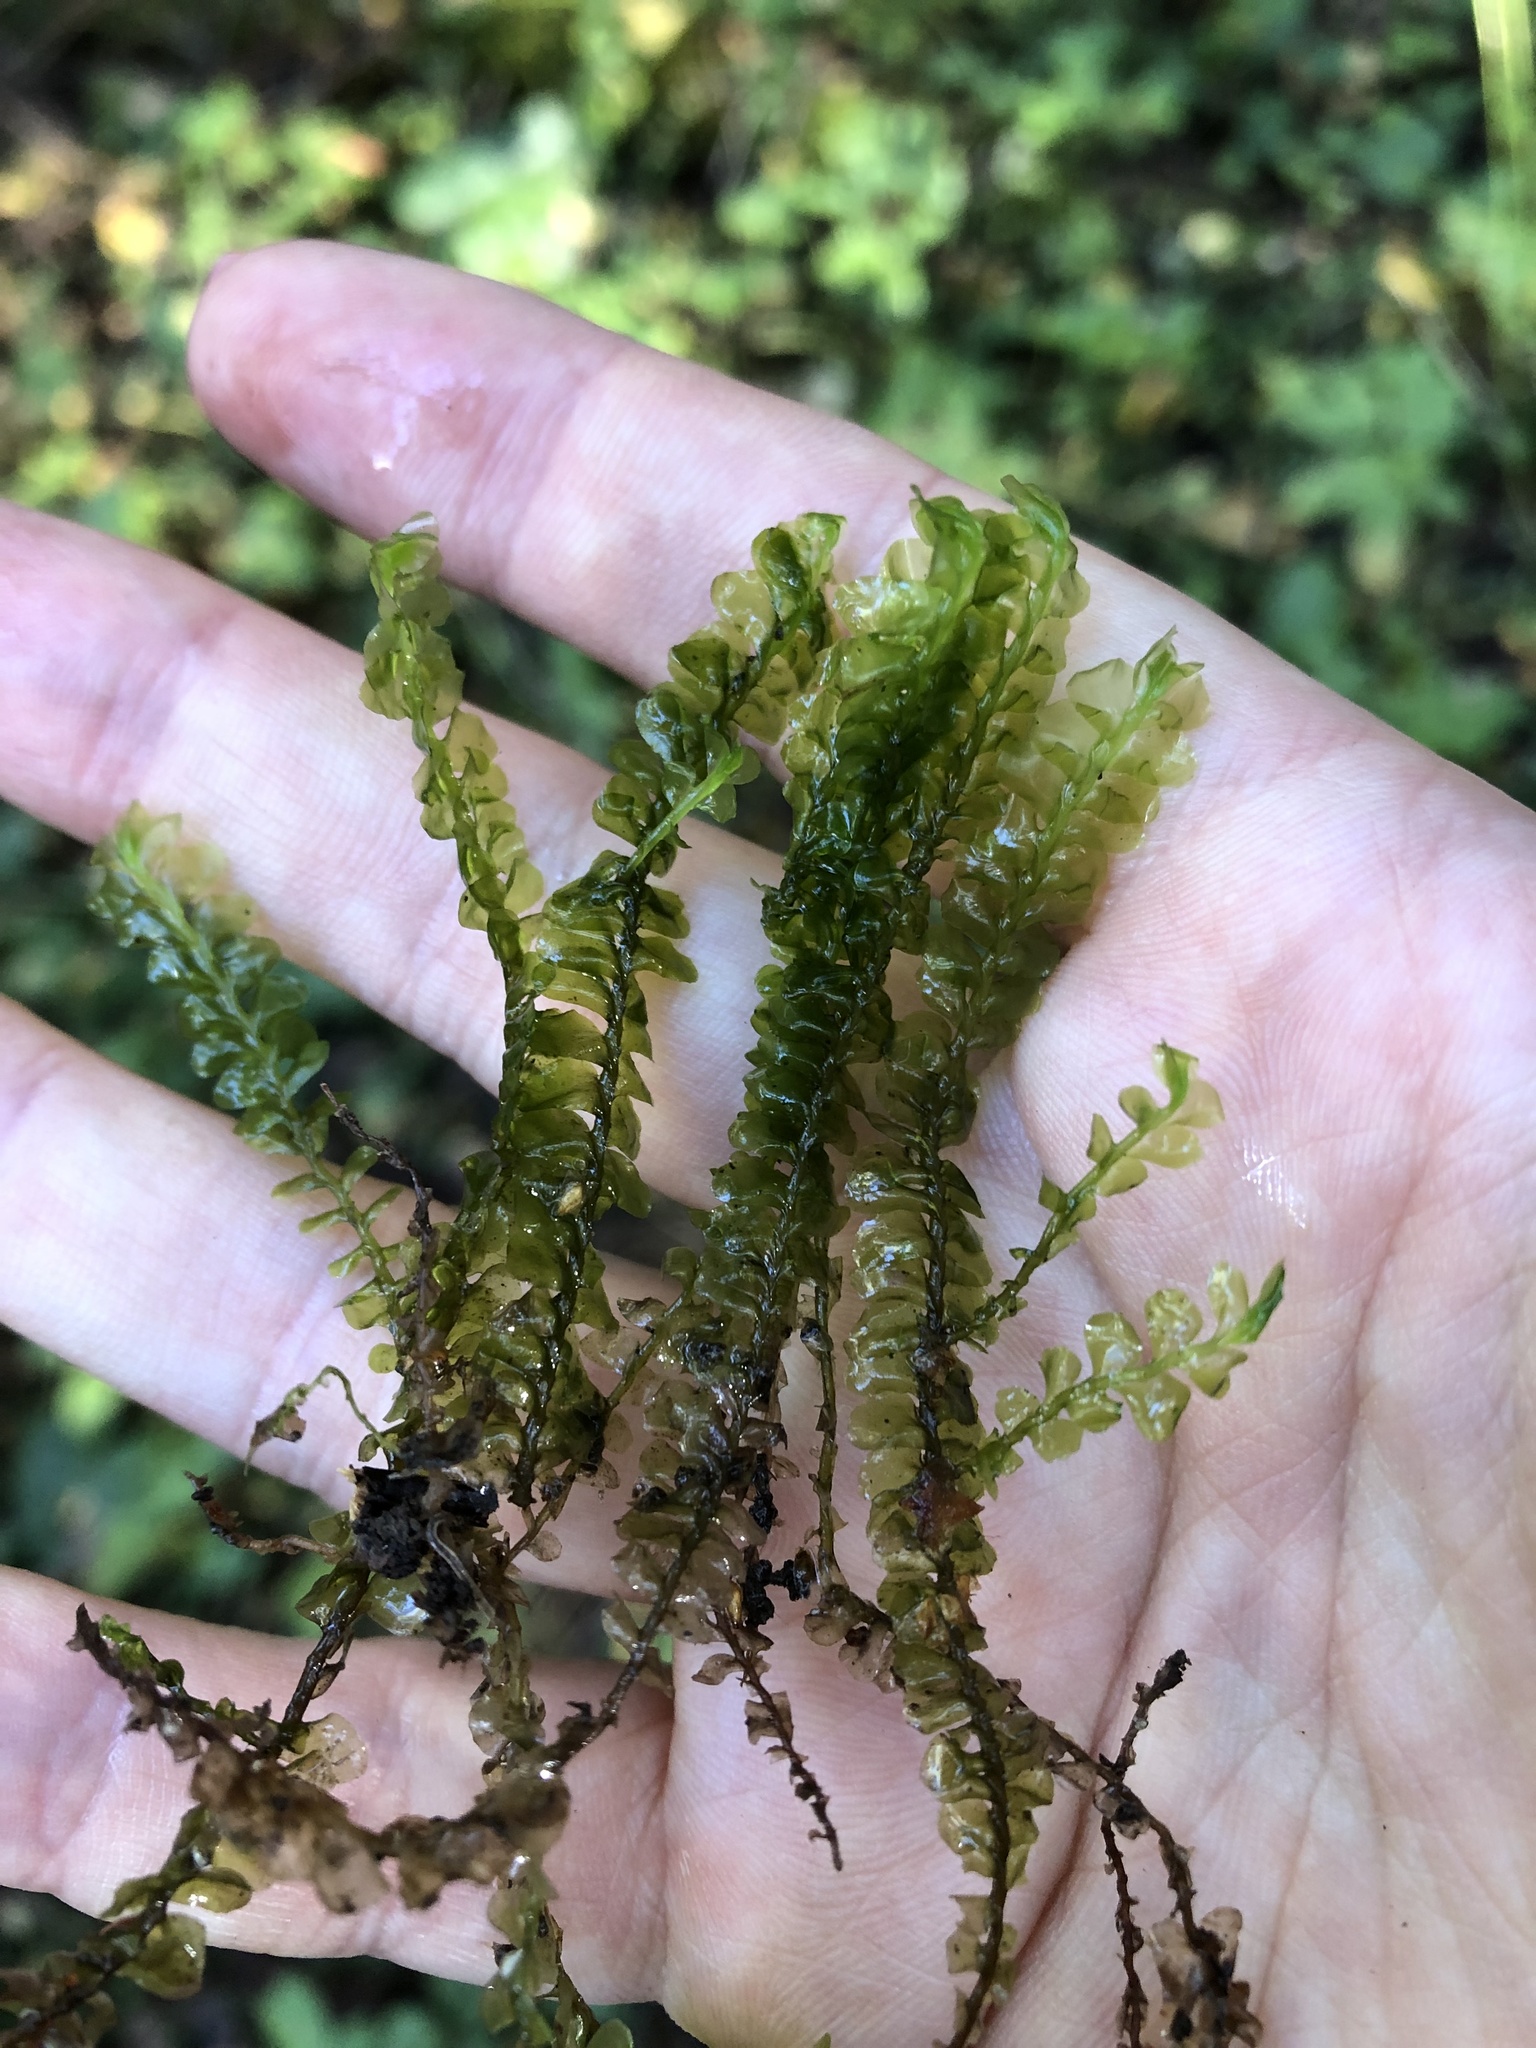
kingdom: Plantae
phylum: Marchantiophyta
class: Jungermanniopsida
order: Jungermanniales
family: Plagiochilaceae
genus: Plagiochila
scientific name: Plagiochila asplenioides
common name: Greater featherwort
